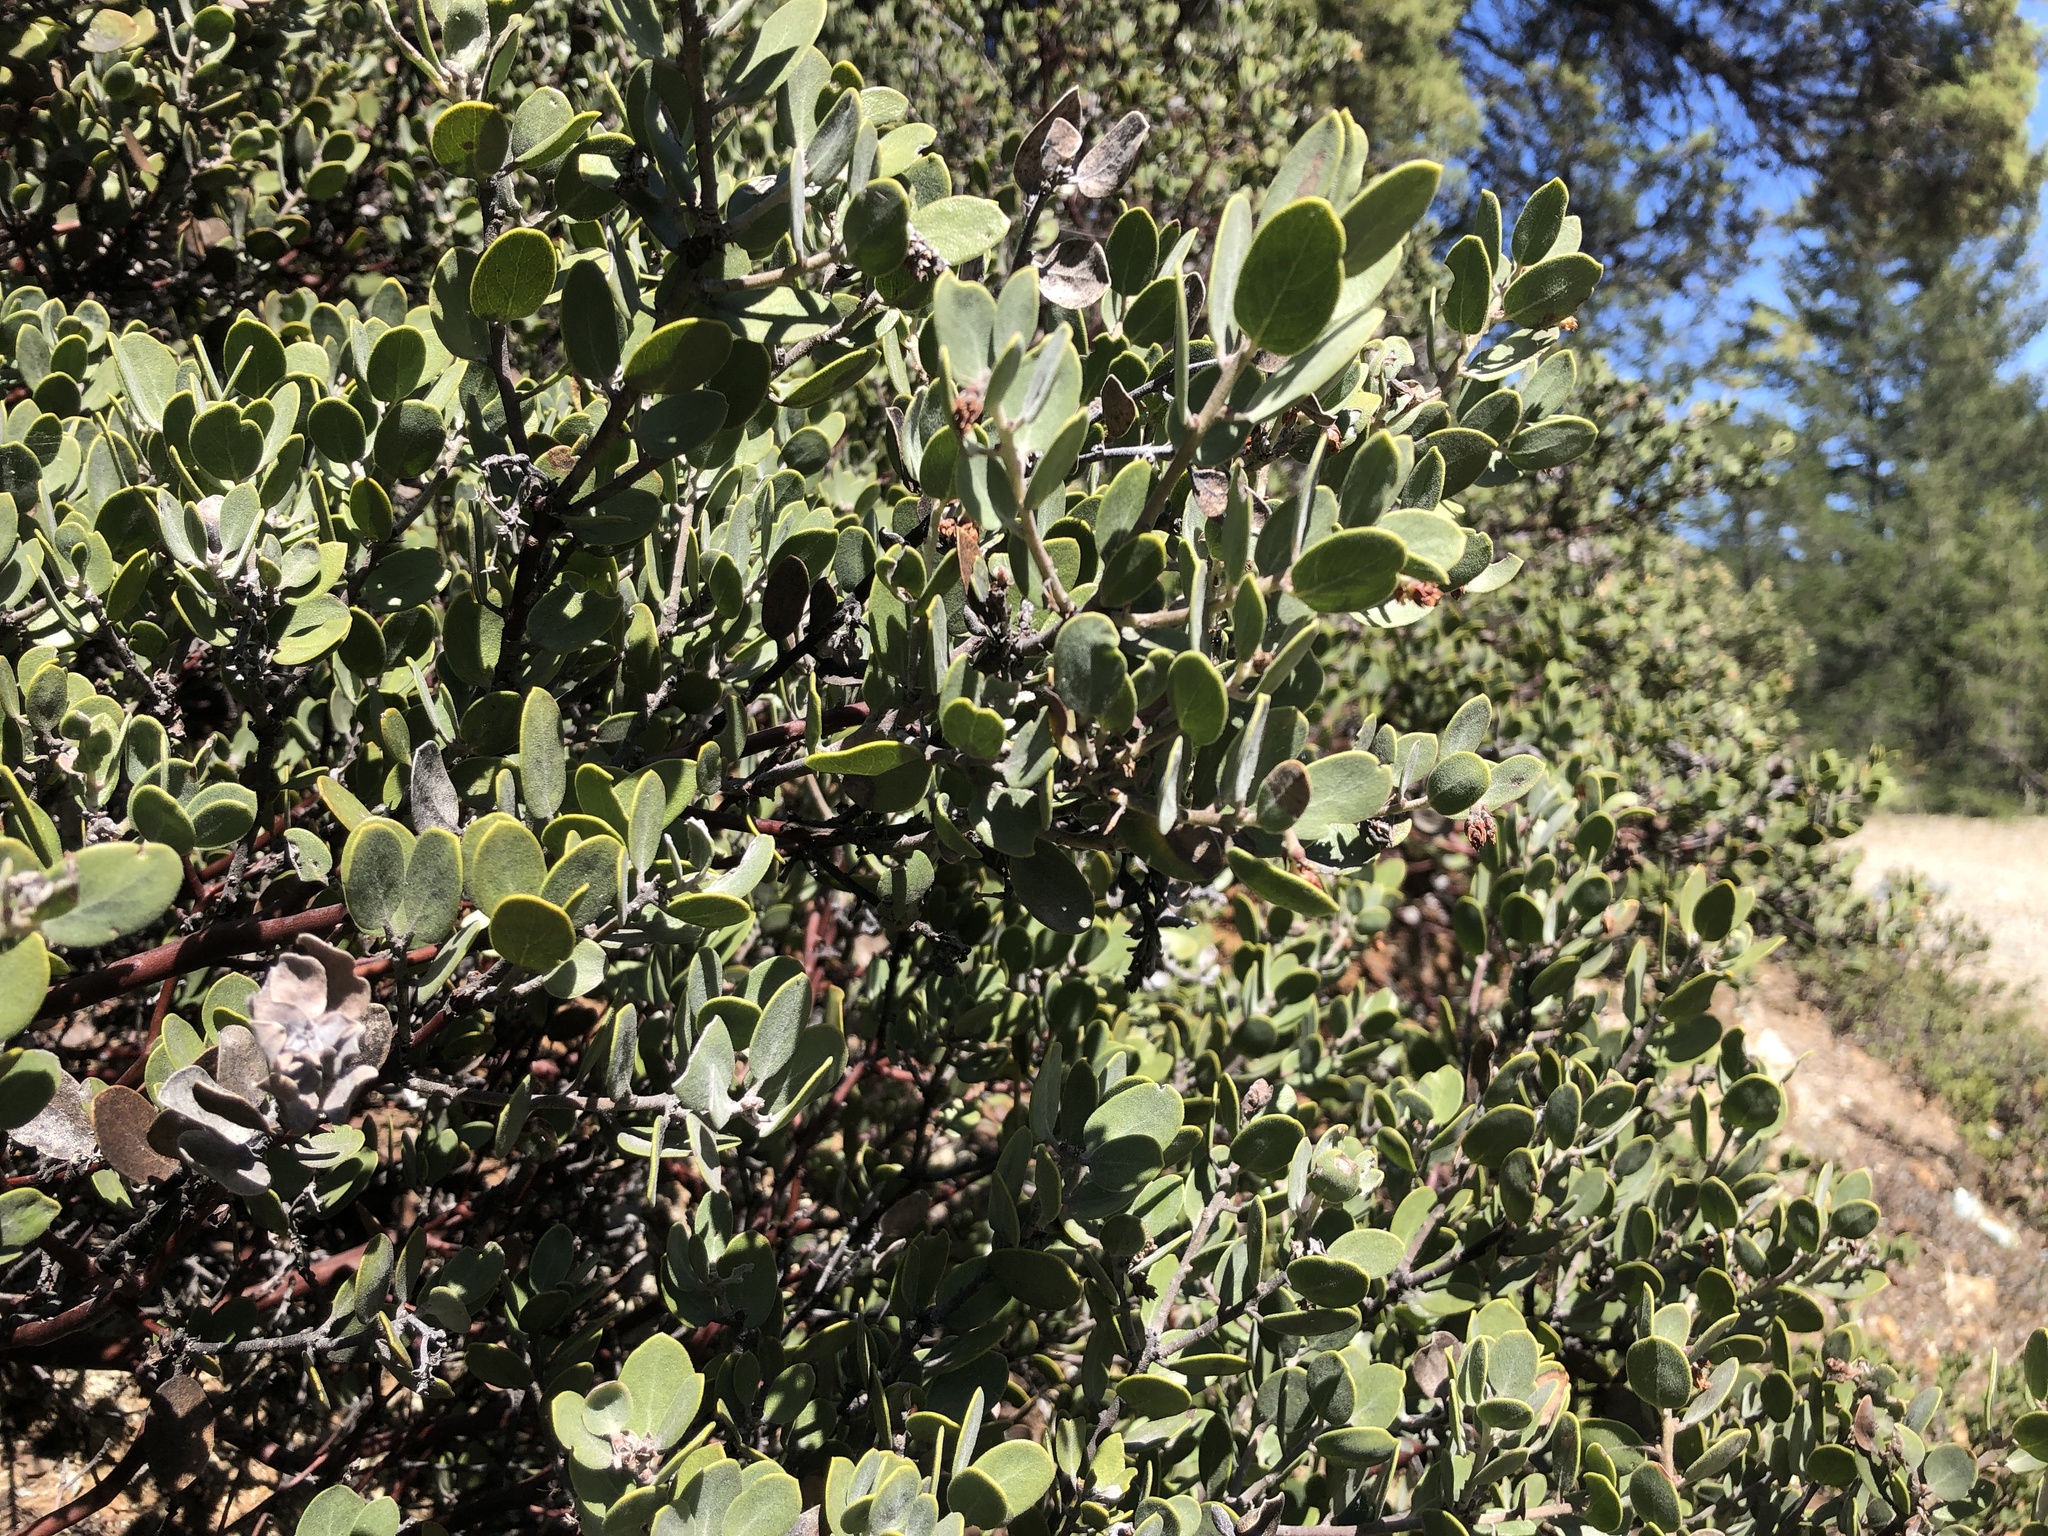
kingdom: Plantae
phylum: Tracheophyta
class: Magnoliopsida
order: Ericales
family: Ericaceae
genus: Arctostaphylos
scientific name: Arctostaphylos montana
